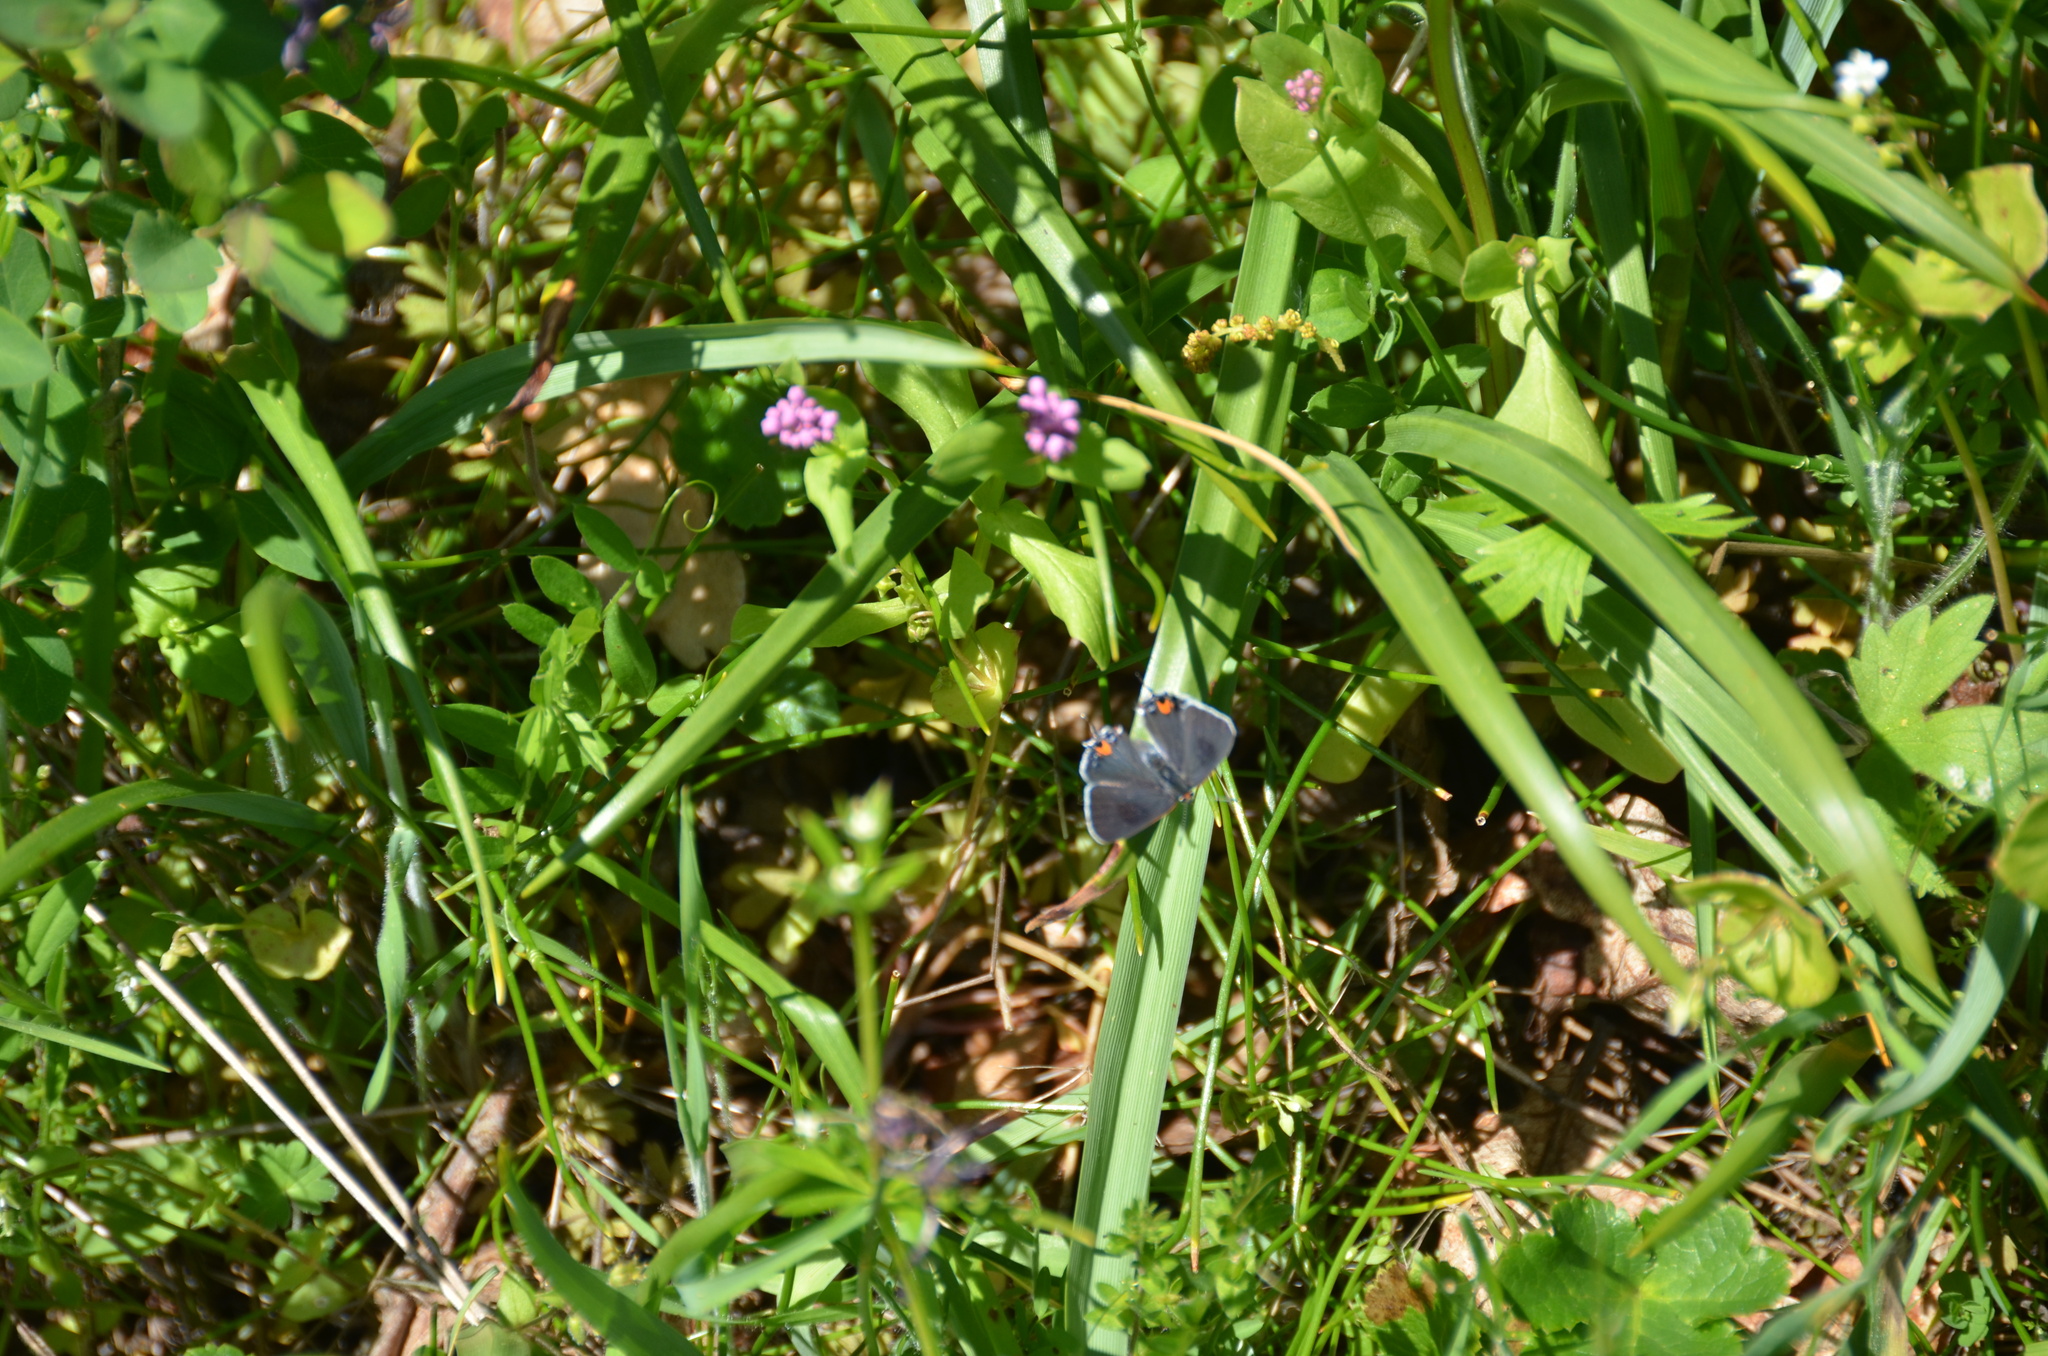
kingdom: Animalia
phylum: Arthropoda
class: Insecta
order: Lepidoptera
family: Lycaenidae
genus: Strymon
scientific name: Strymon melinus
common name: Gray hairstreak
